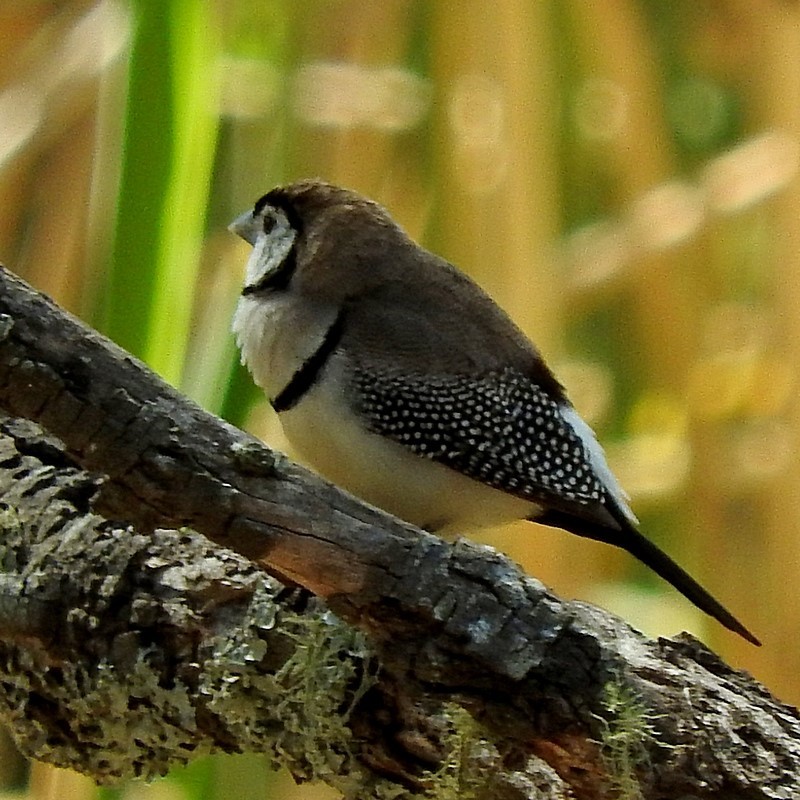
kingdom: Animalia
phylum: Chordata
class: Aves
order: Passeriformes
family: Estrildidae
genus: Taeniopygia
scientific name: Taeniopygia bichenovii
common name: Double-barred finch
